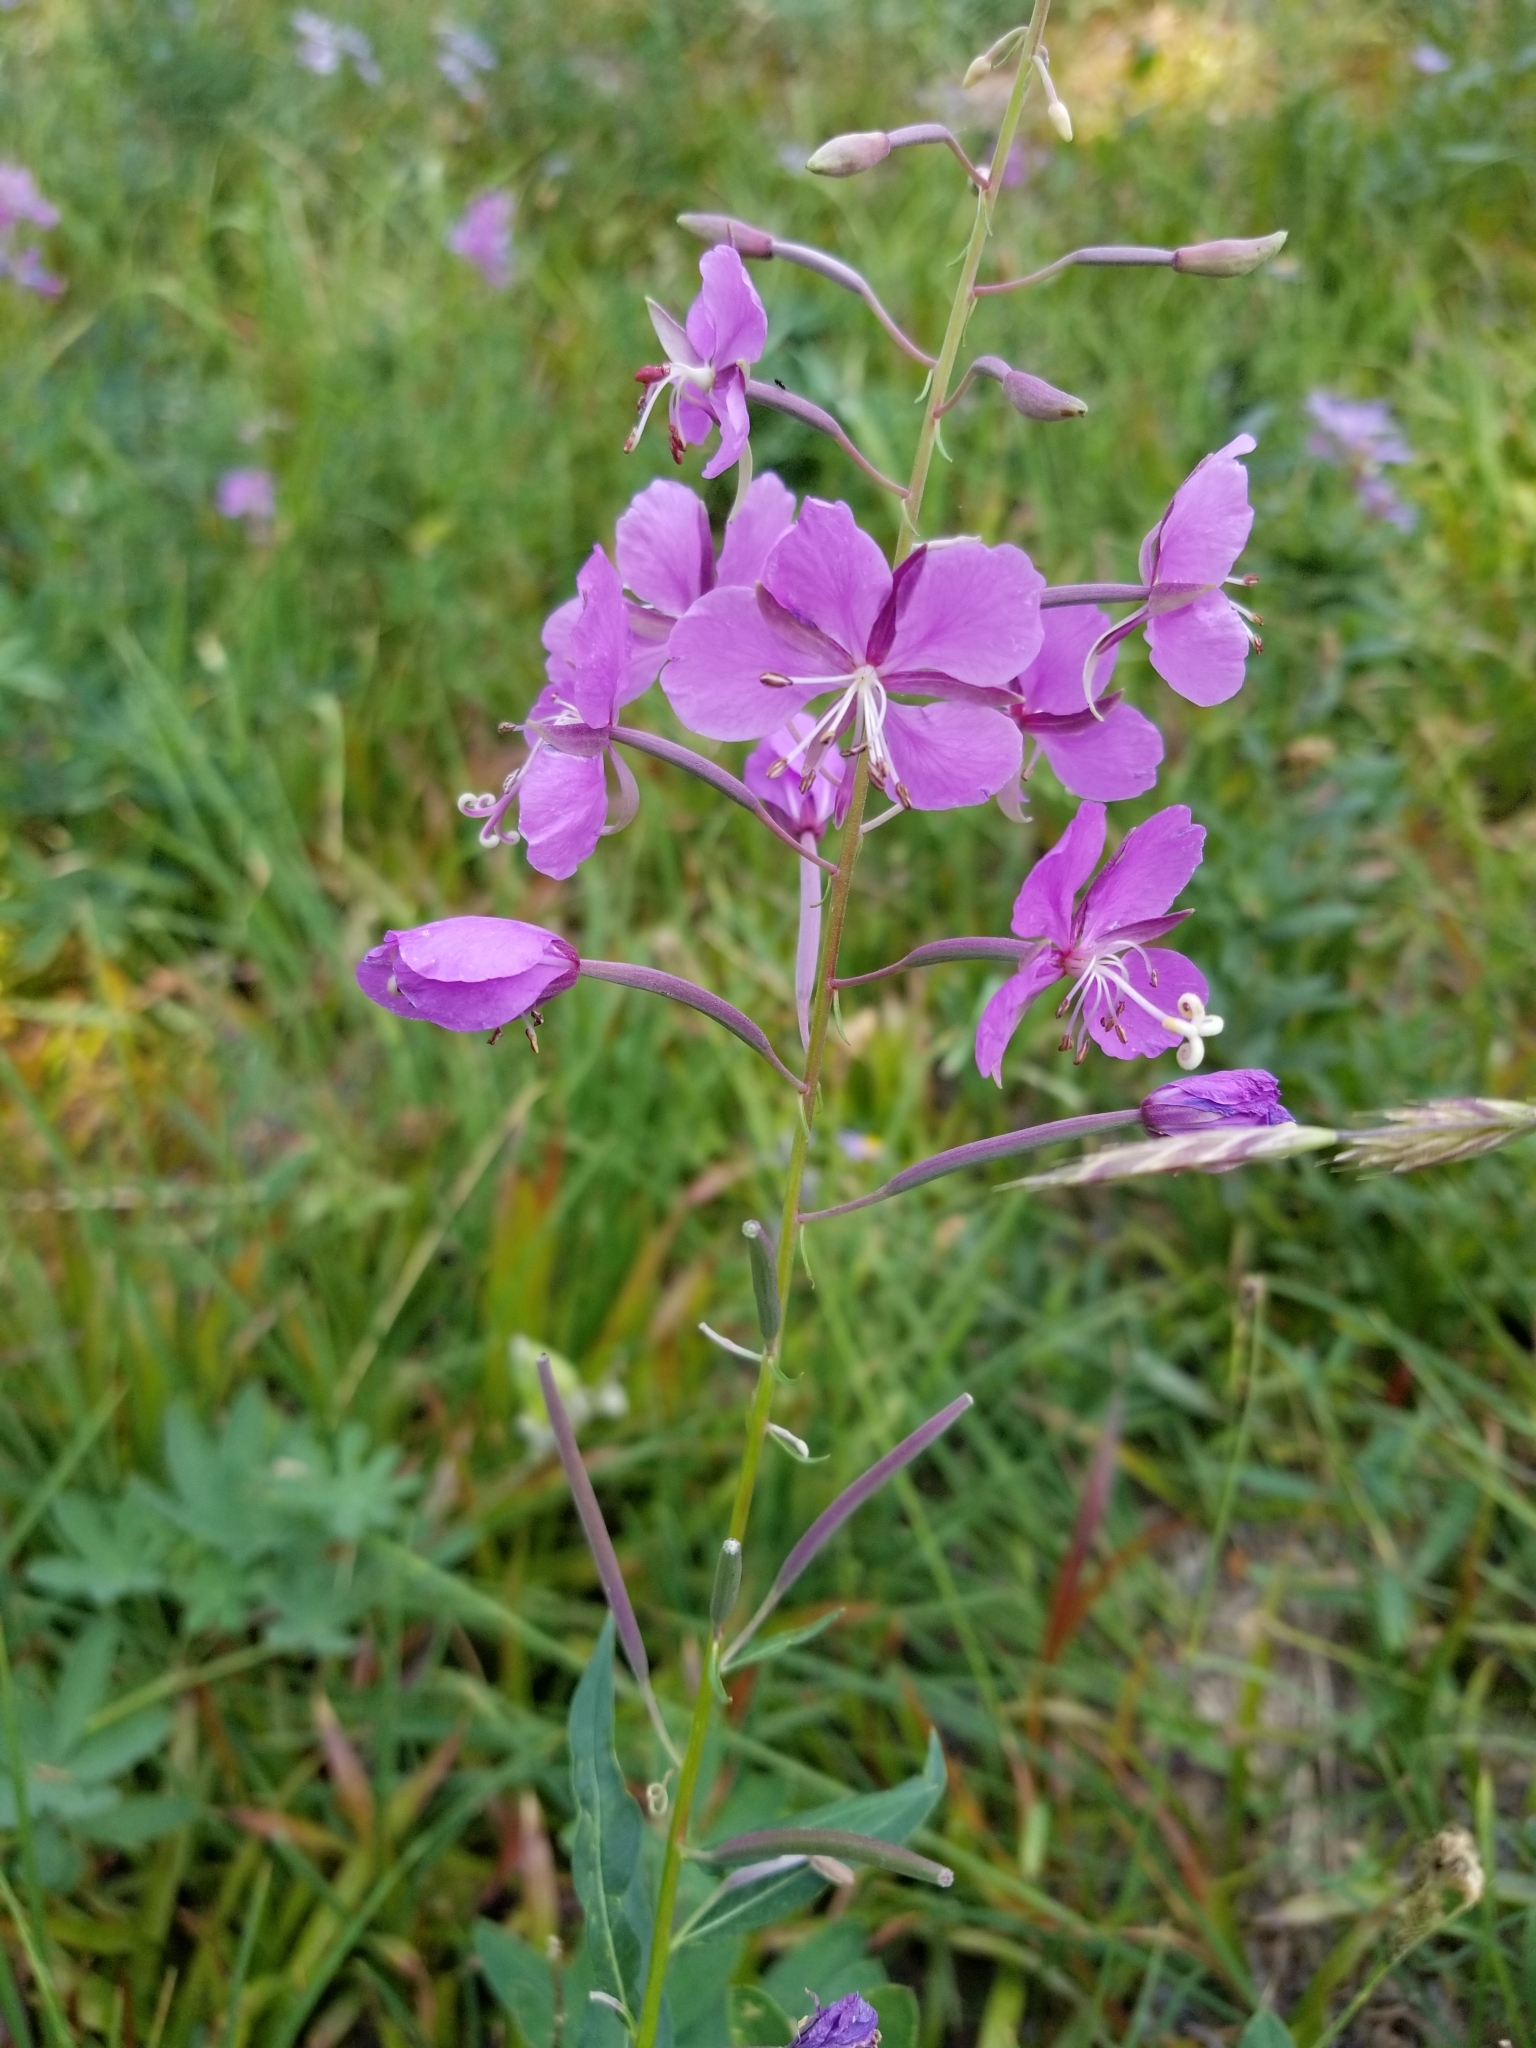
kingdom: Plantae
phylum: Tracheophyta
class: Magnoliopsida
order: Myrtales
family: Onagraceae
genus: Chamaenerion
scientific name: Chamaenerion angustifolium
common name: Fireweed
